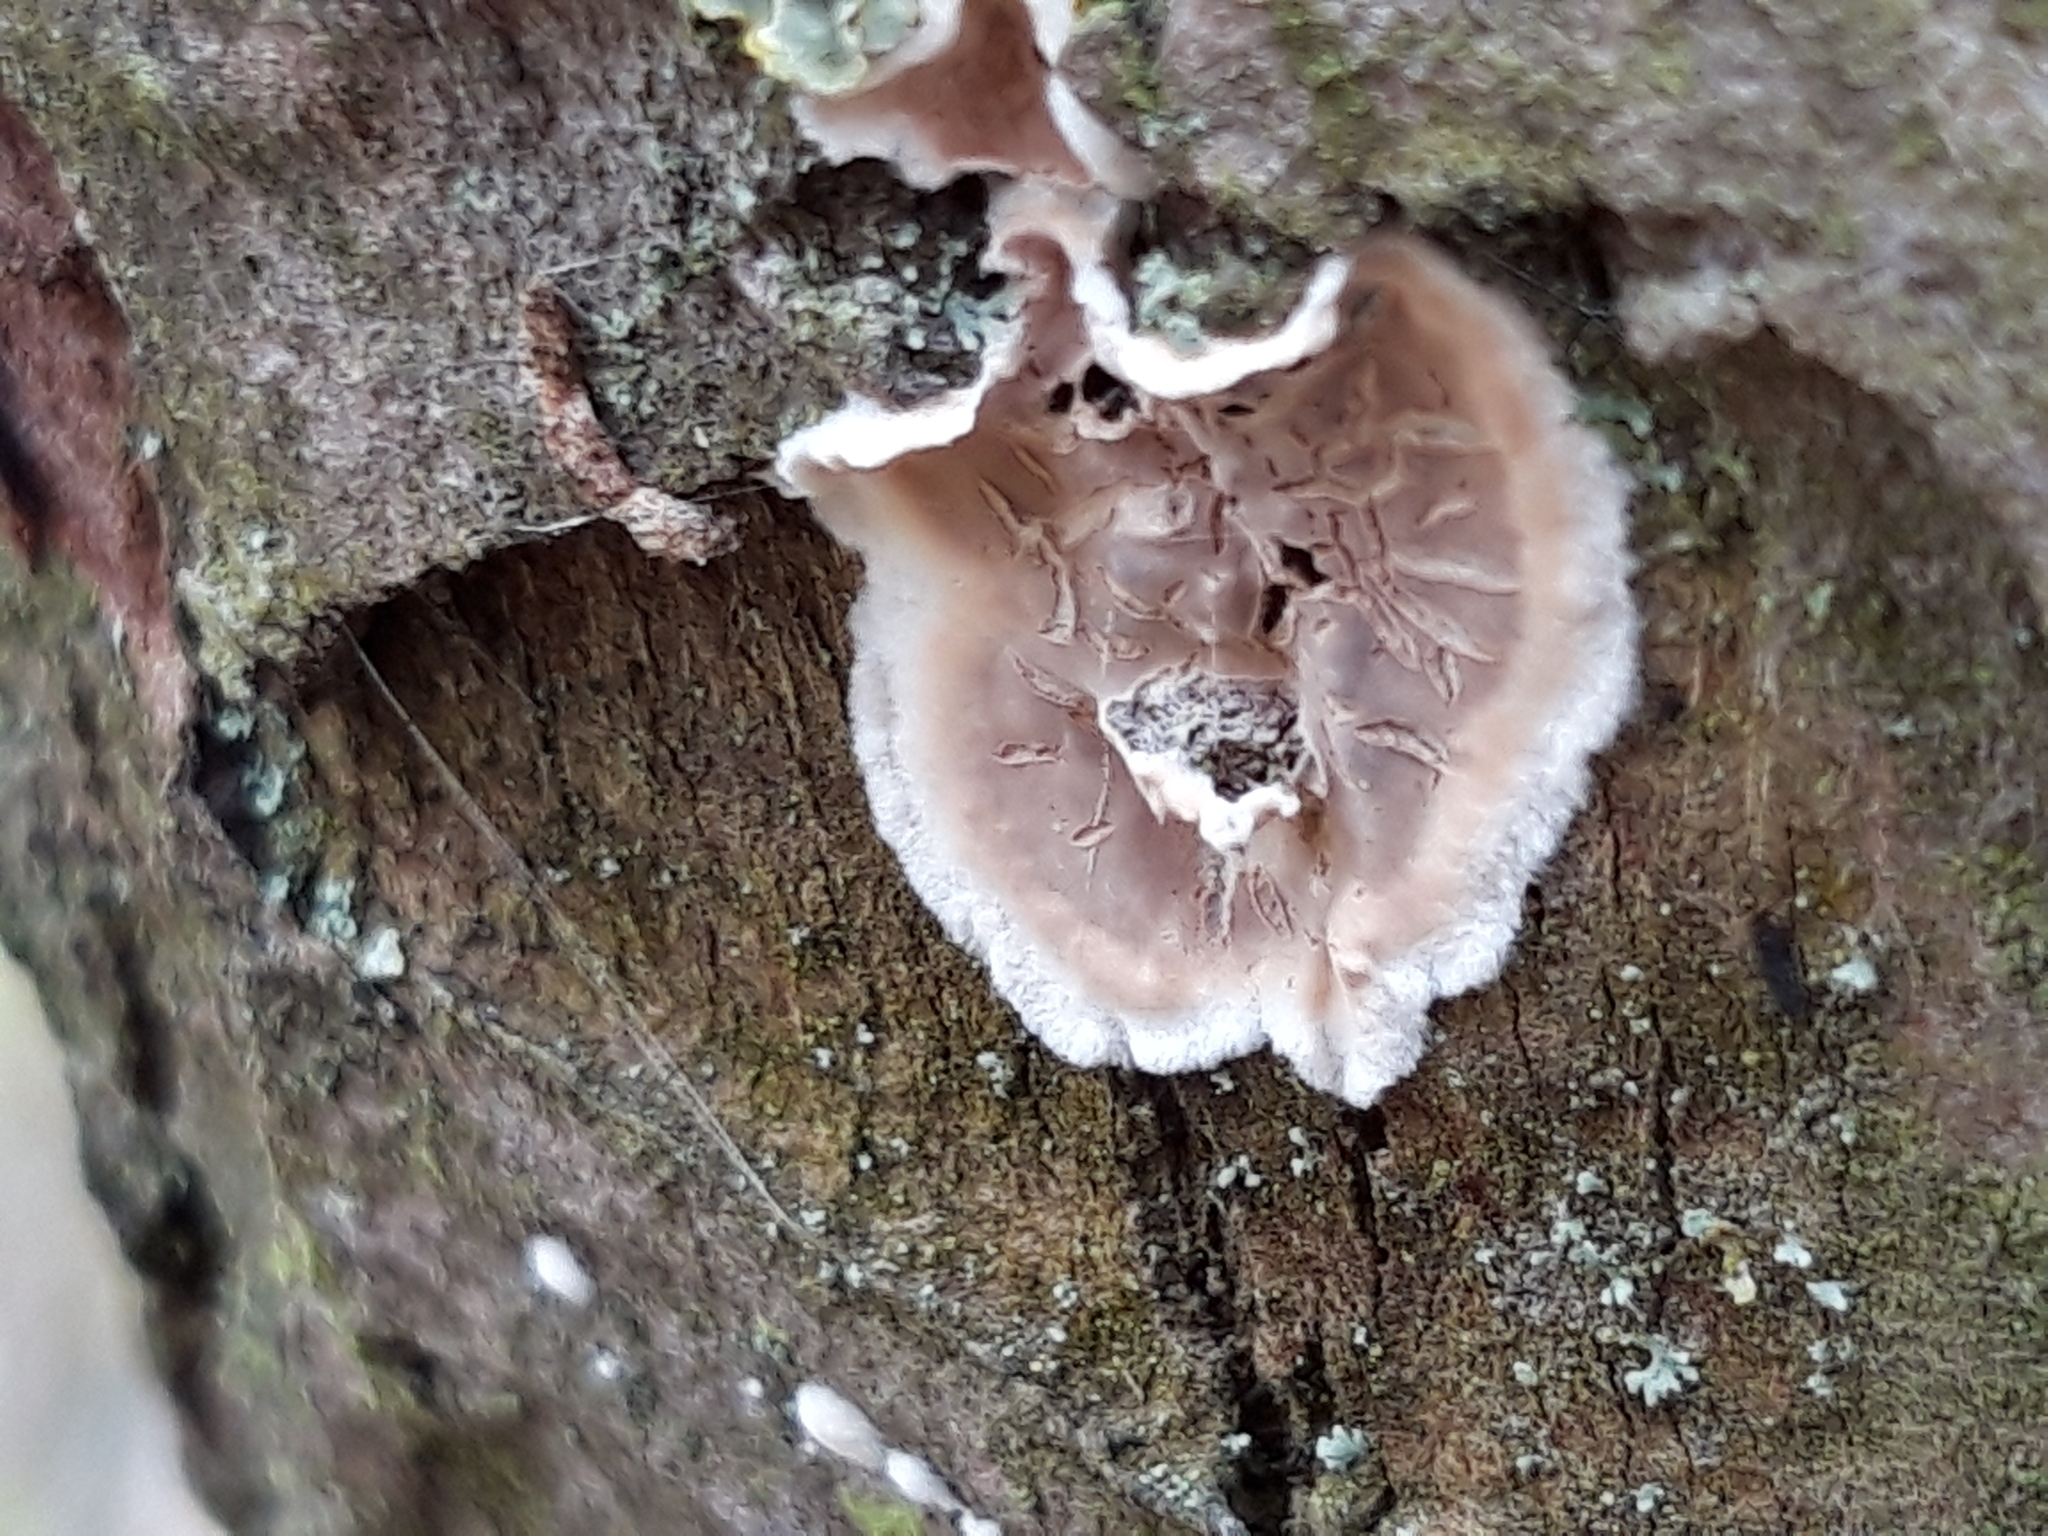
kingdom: Fungi
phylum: Basidiomycota
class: Agaricomycetes
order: Agaricales
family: Cyphellaceae
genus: Chondrostereum
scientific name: Chondrostereum purpureum
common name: Silver leaf disease
